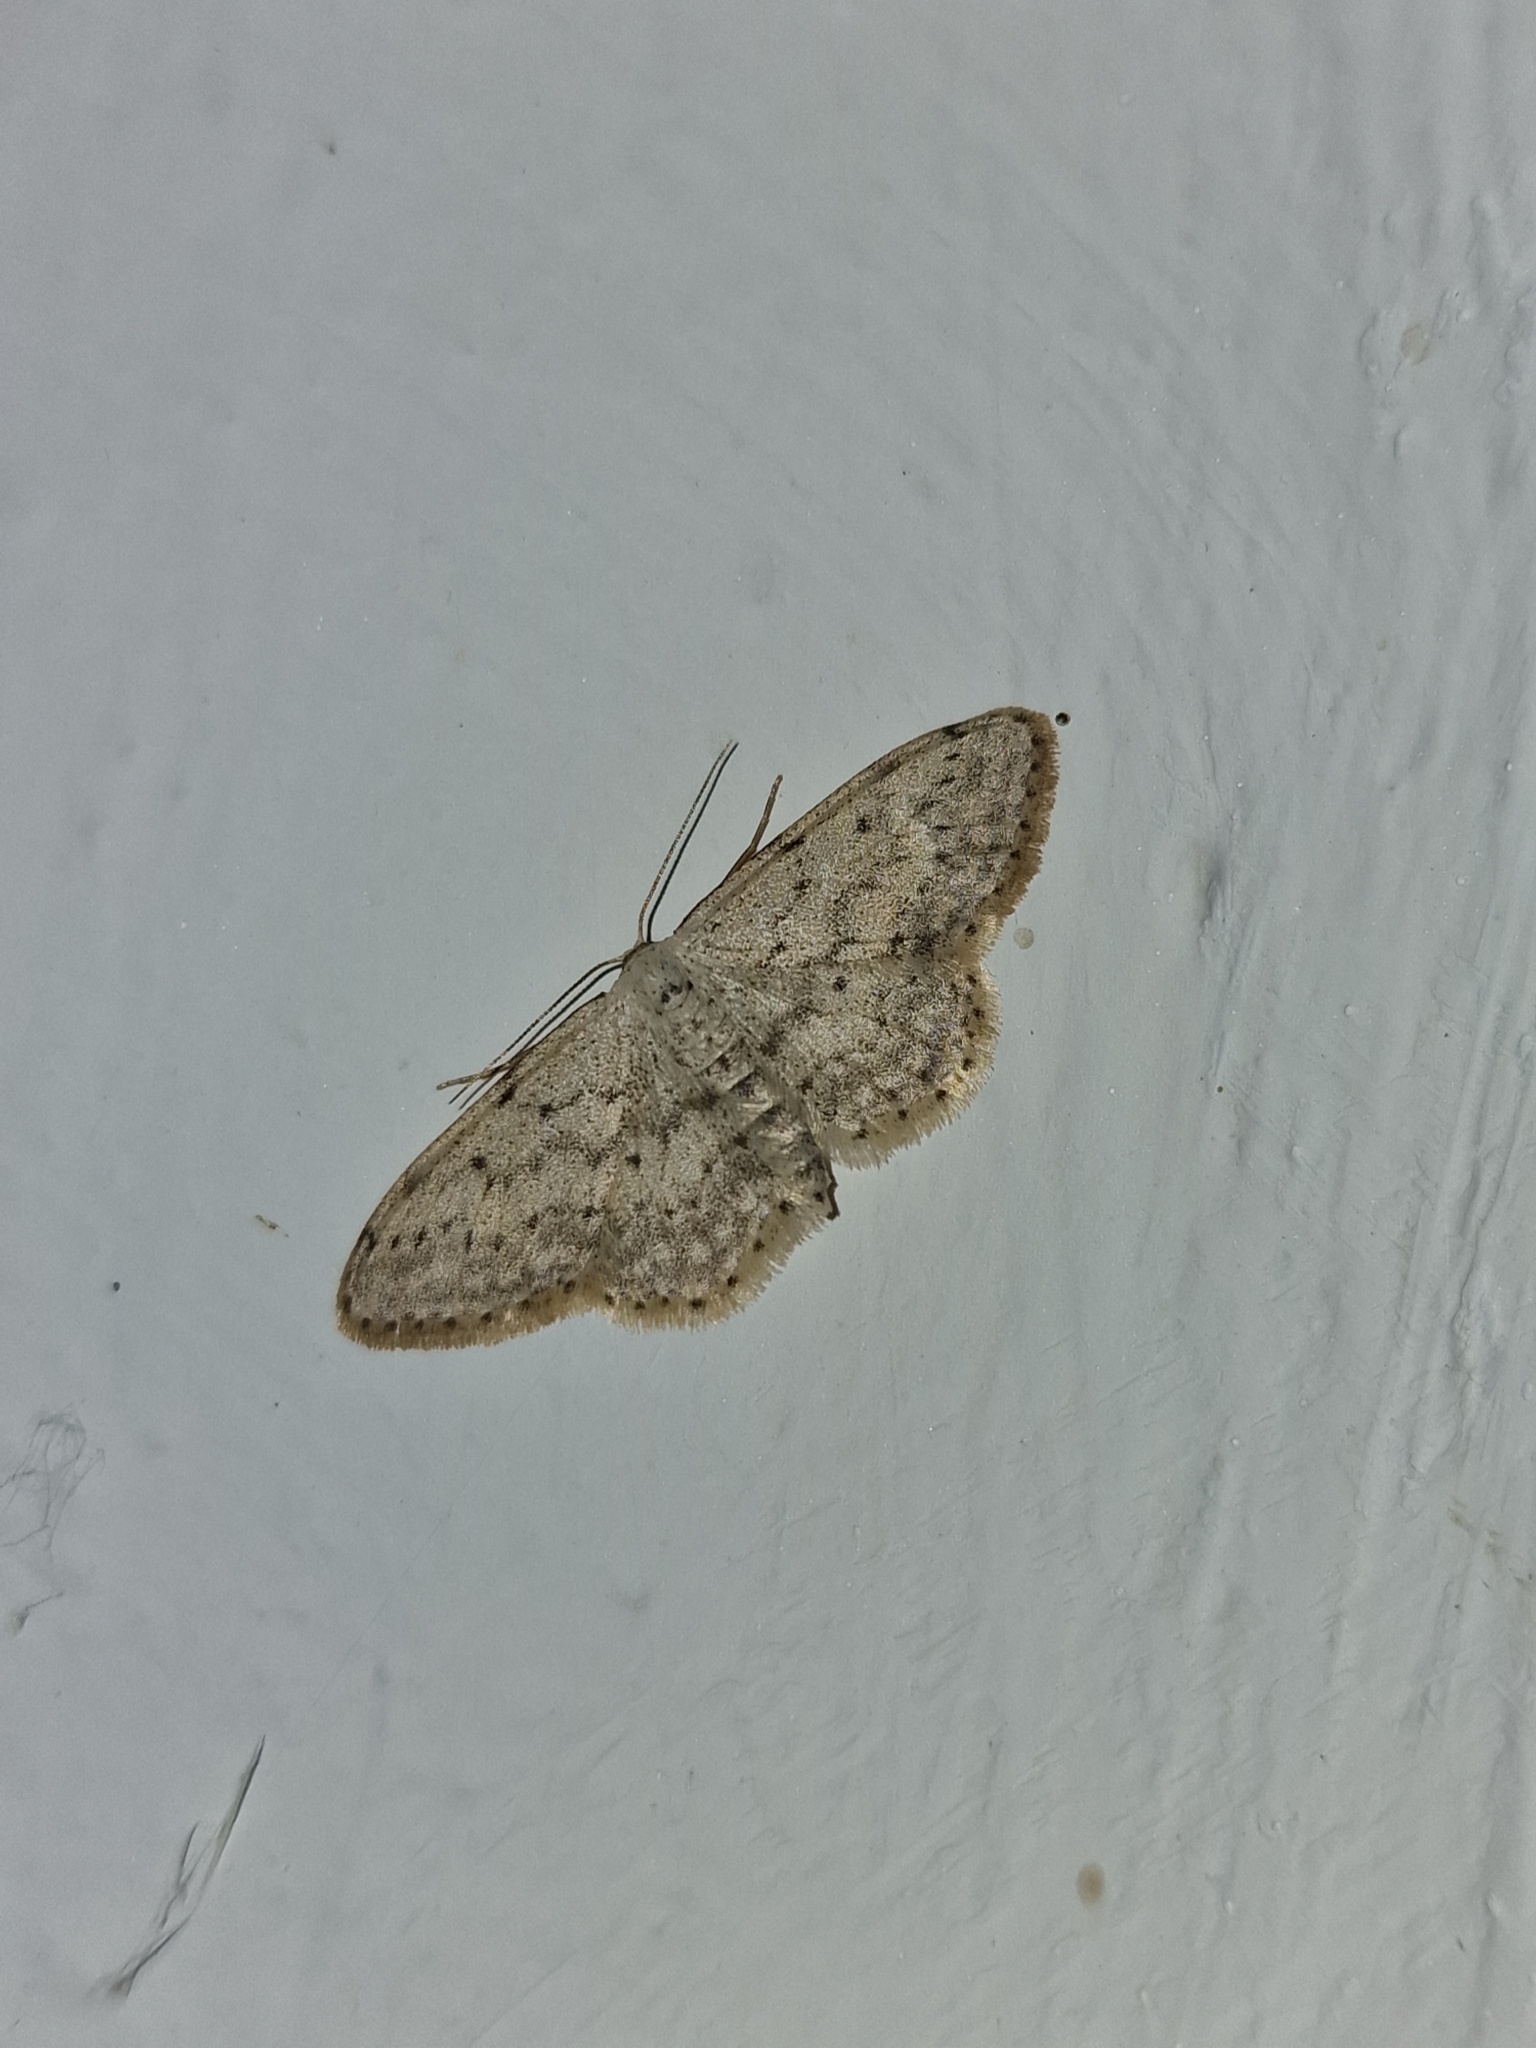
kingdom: Animalia
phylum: Arthropoda
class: Insecta
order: Lepidoptera
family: Geometridae
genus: Idaea
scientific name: Idaea seriata
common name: Small dusty wave
